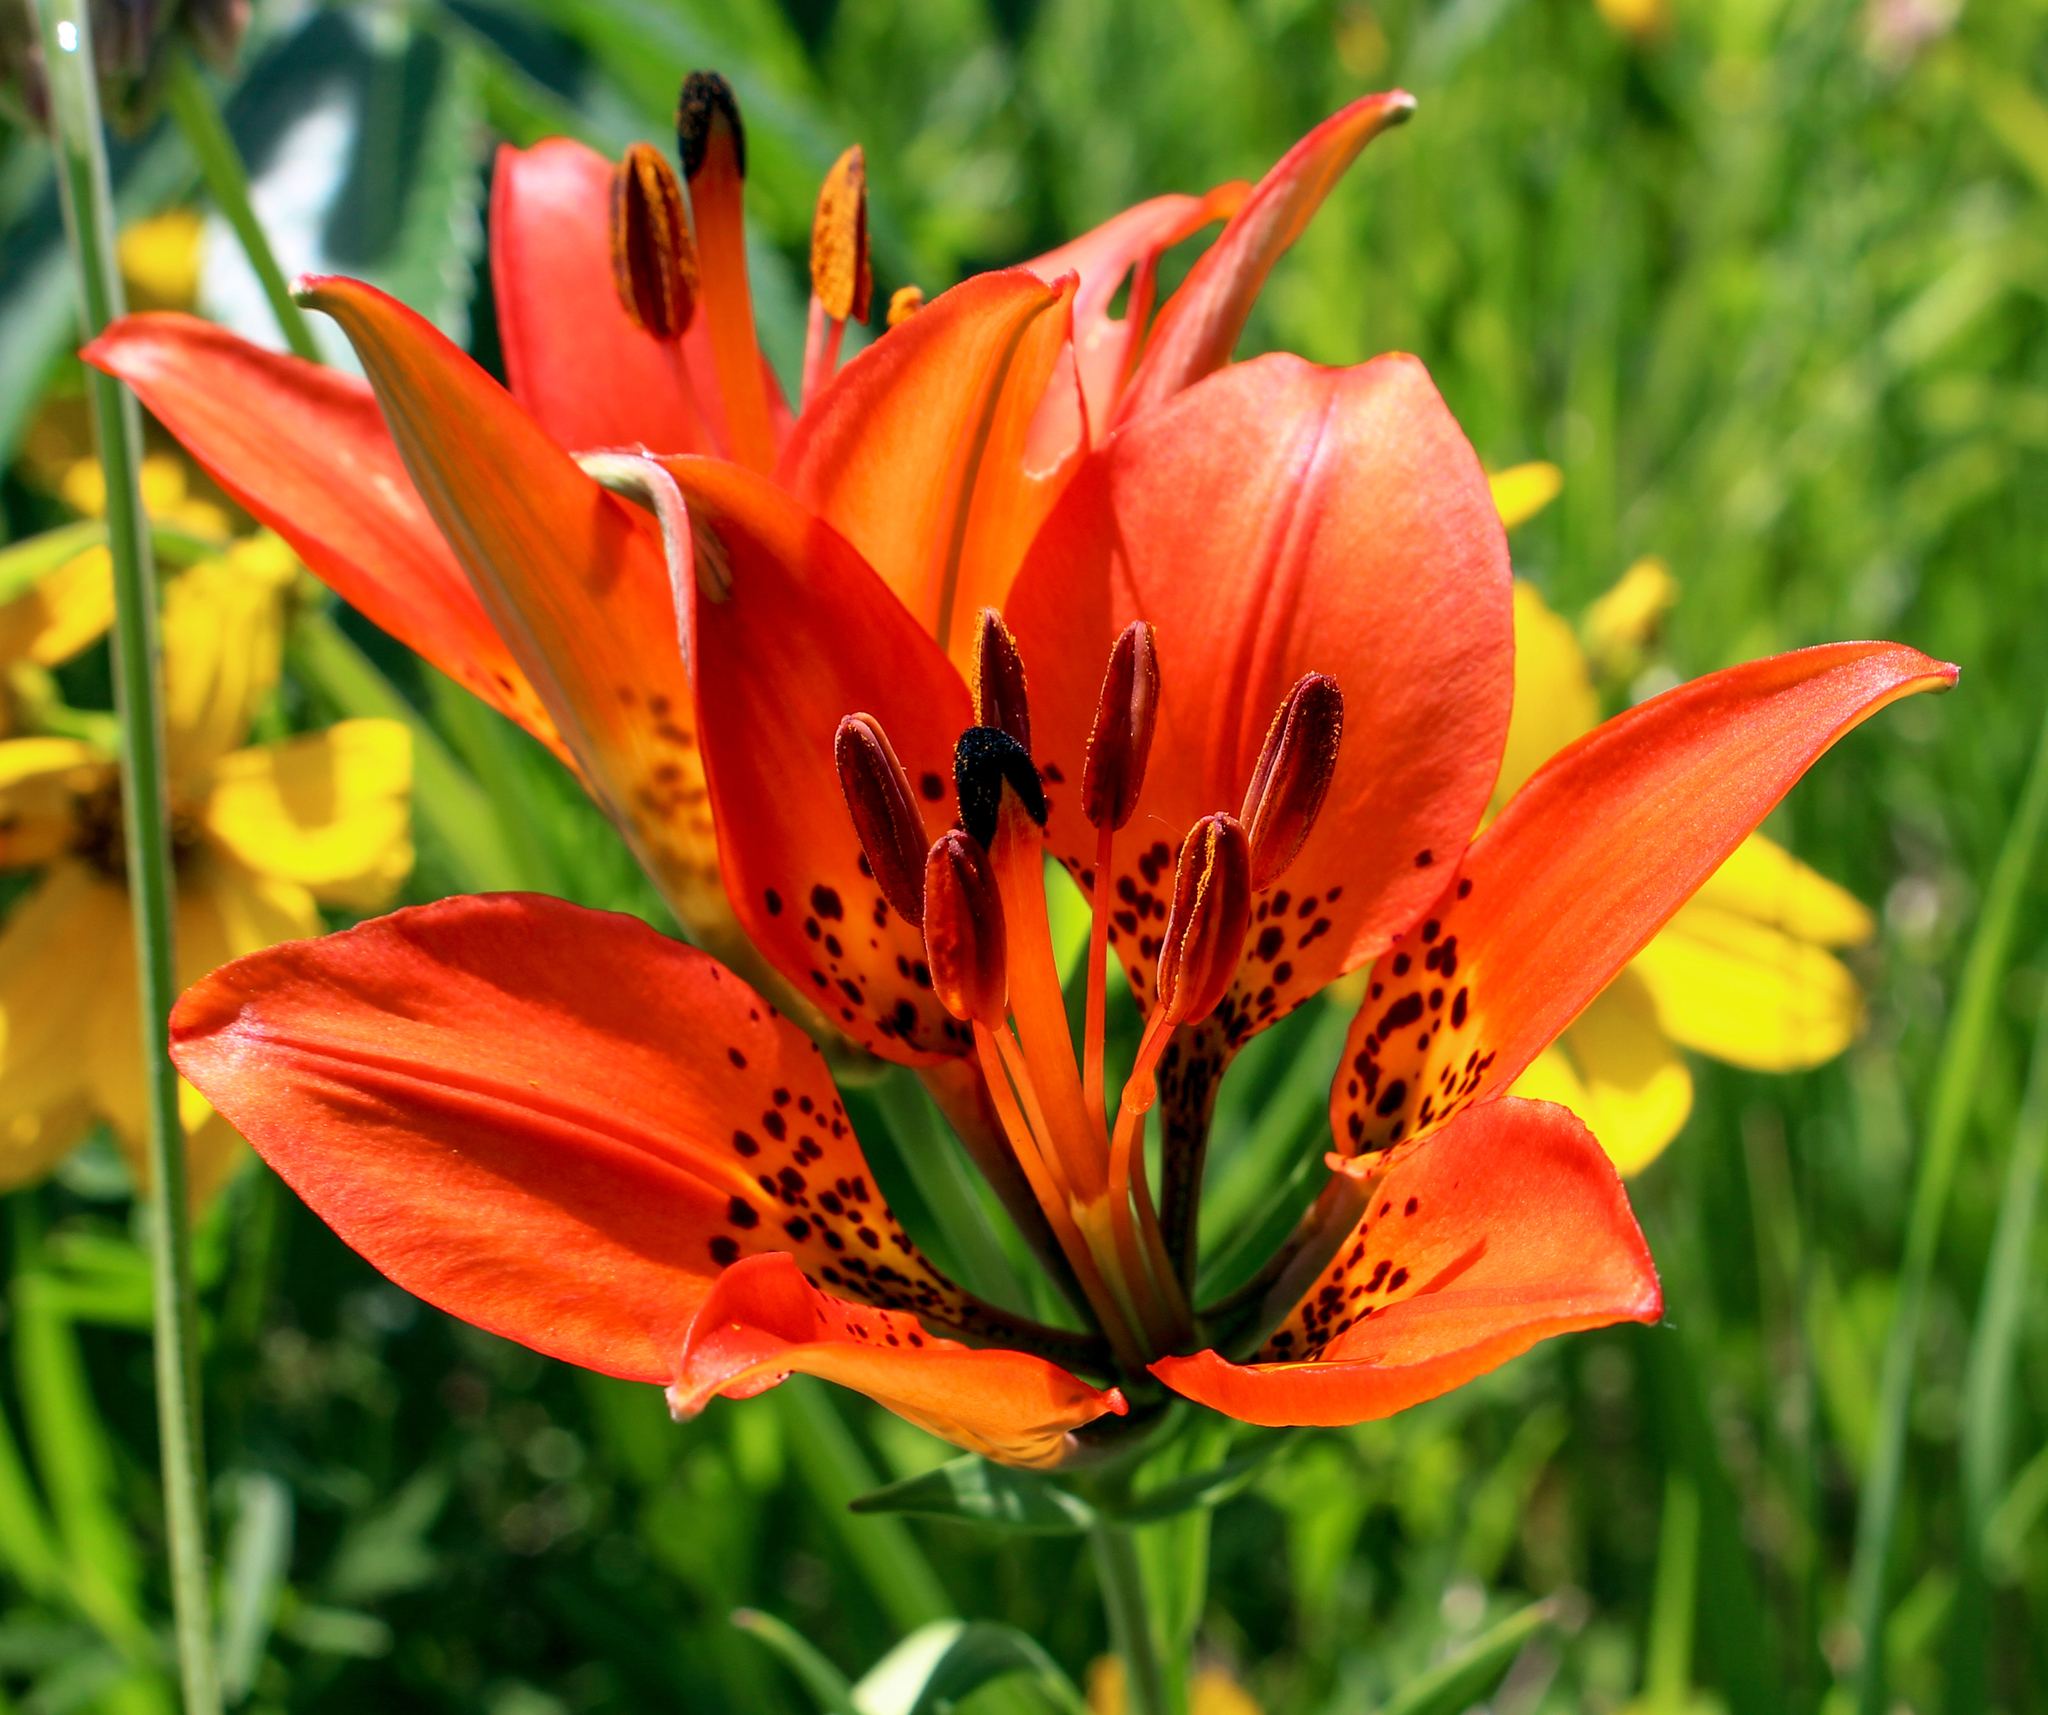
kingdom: Plantae
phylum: Tracheophyta
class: Liliopsida
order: Liliales
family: Liliaceae
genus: Lilium
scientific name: Lilium philadelphicum
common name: Red lily
